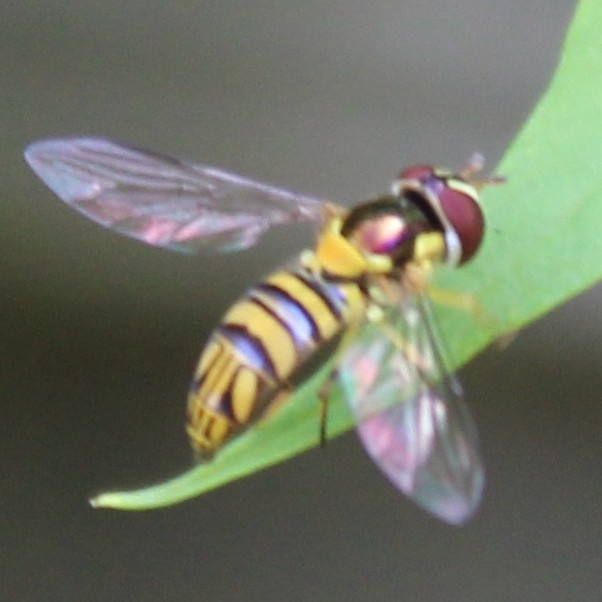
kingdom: Animalia
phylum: Arthropoda
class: Insecta
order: Diptera
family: Syrphidae
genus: Allograpta
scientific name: Allograpta obliqua
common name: Common oblique syrphid
